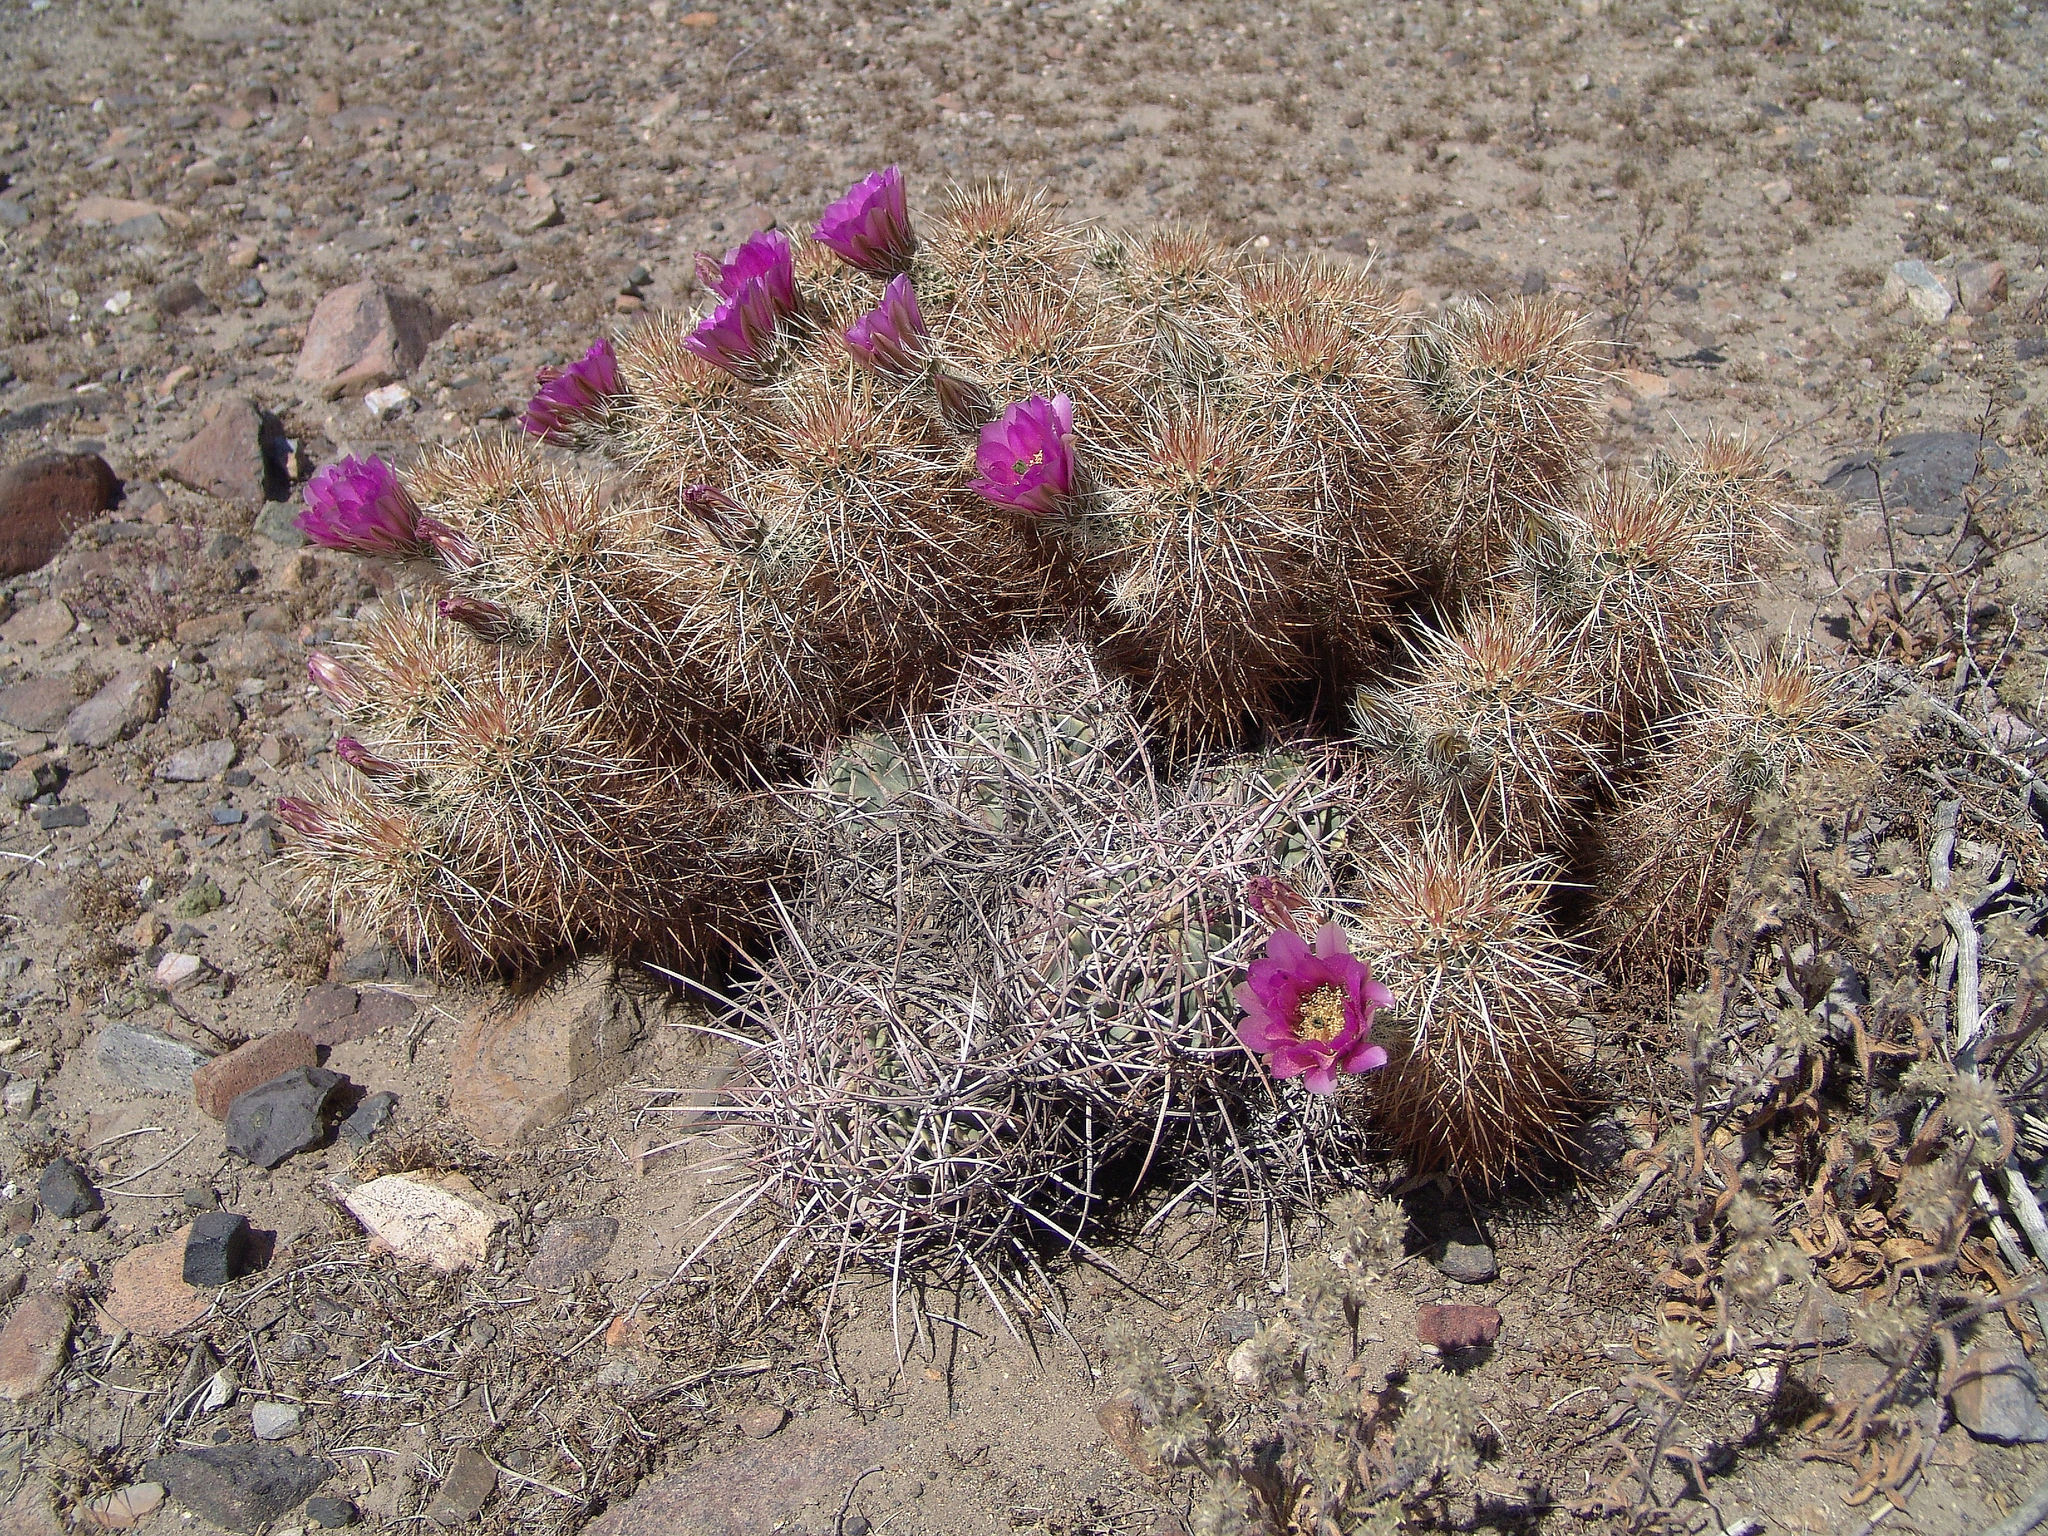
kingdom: Plantae
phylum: Tracheophyta
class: Magnoliopsida
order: Caryophyllales
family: Cactaceae
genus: Echinocereus
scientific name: Echinocereus engelmannii
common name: Engelmann's hedgehog cactus
